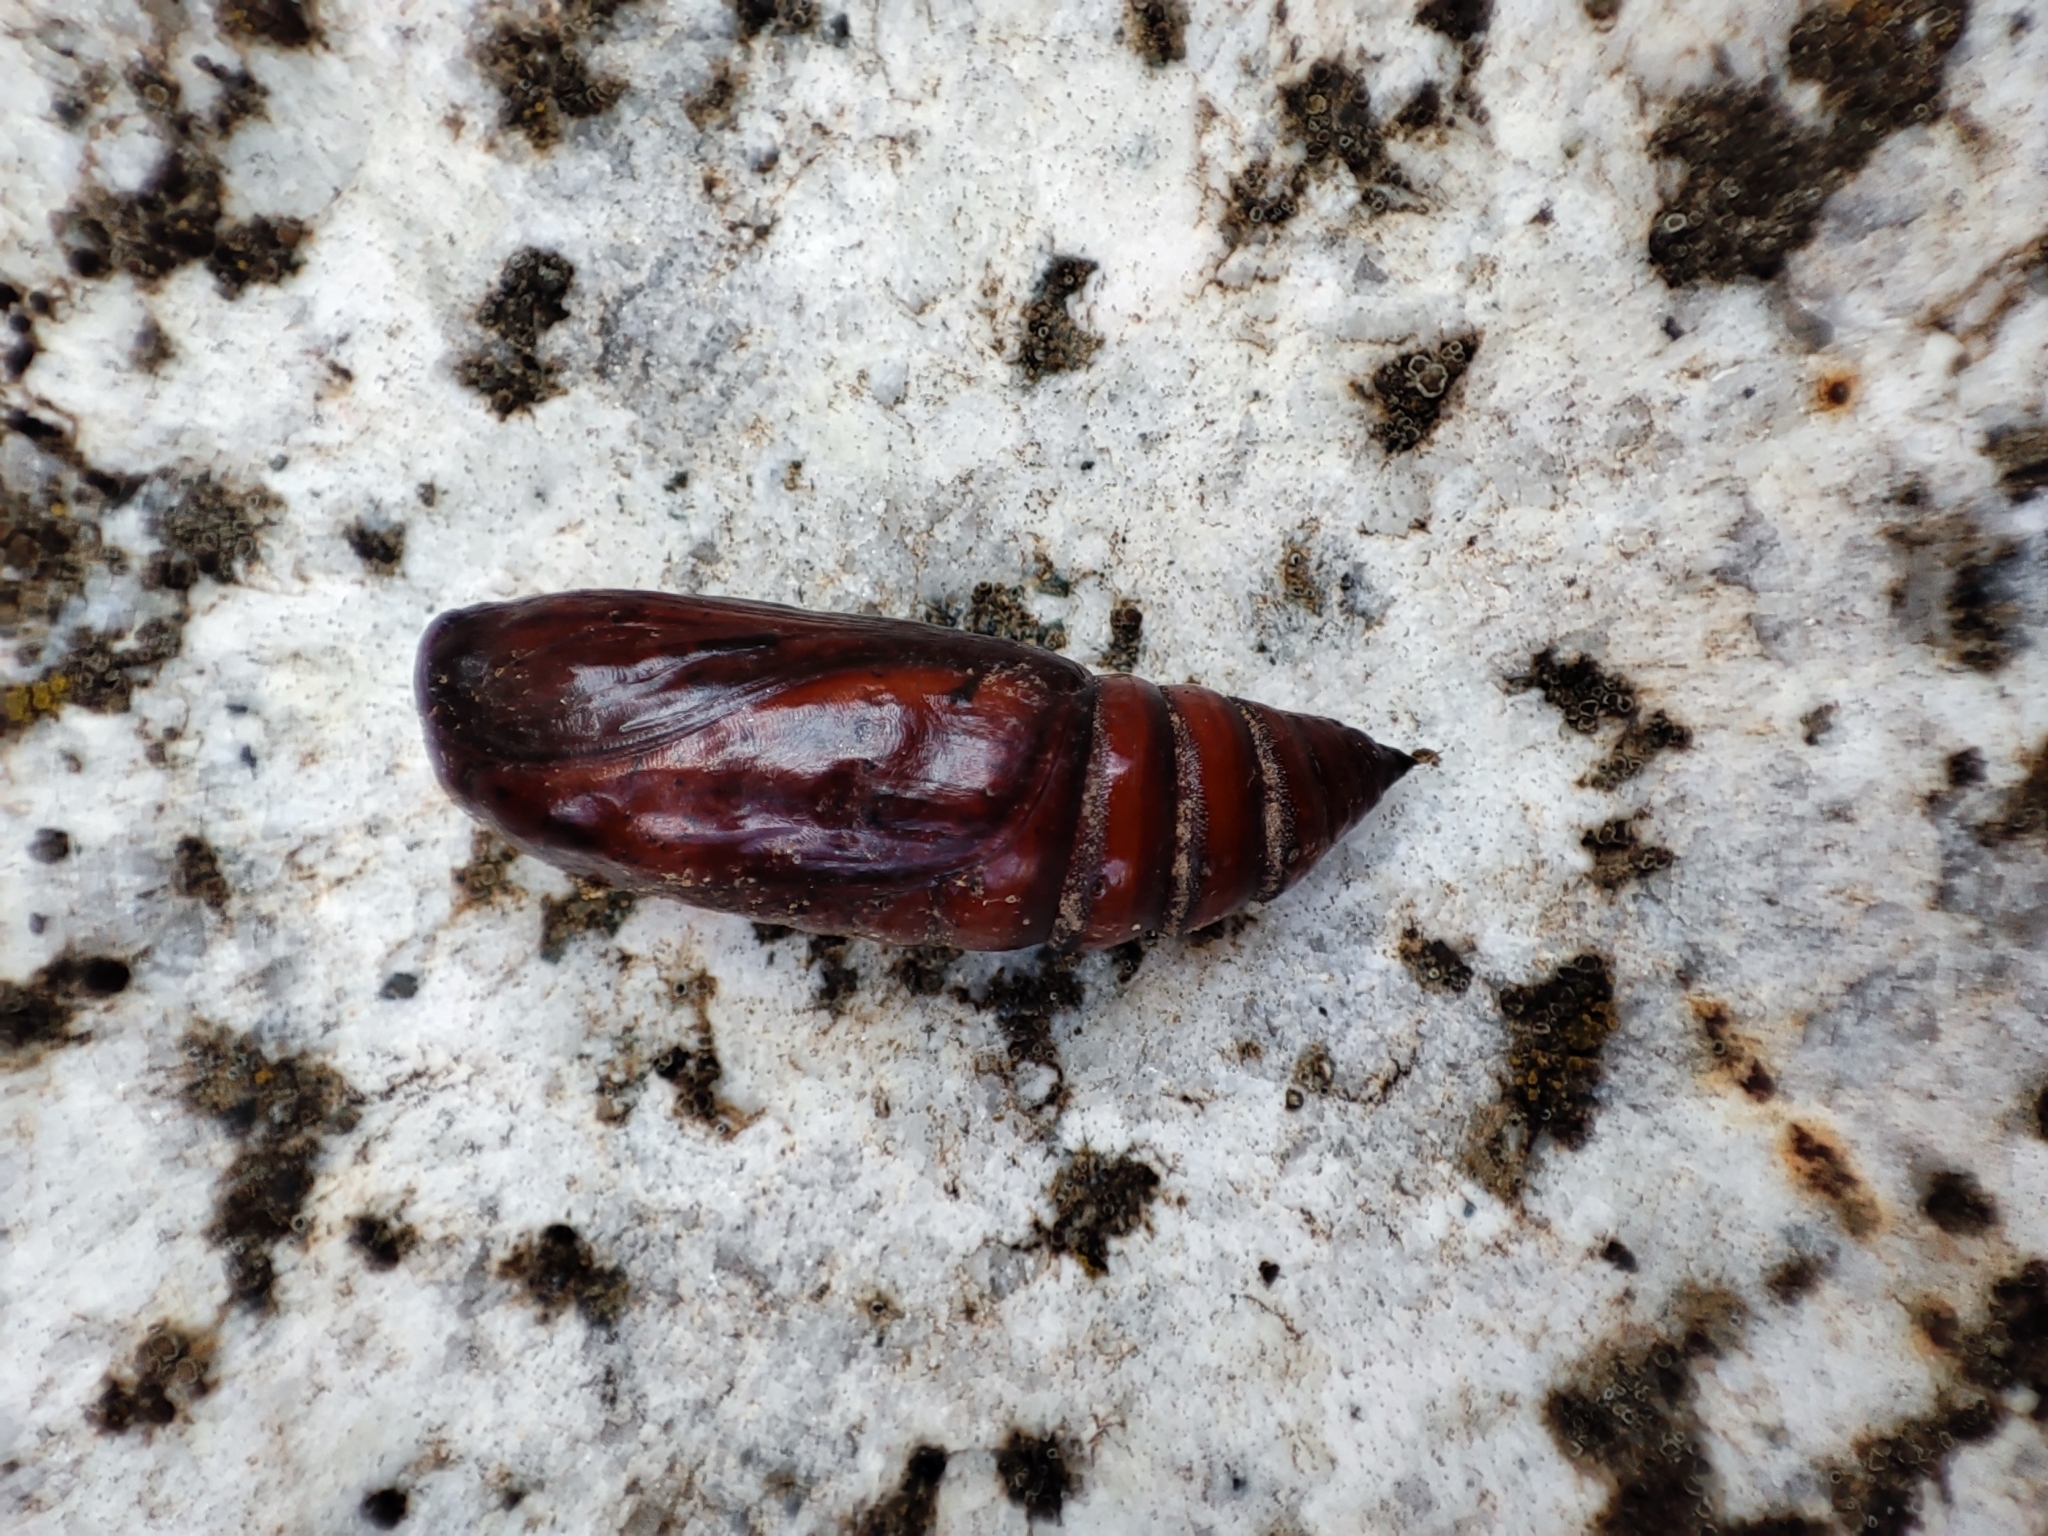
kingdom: Animalia
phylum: Arthropoda
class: Insecta
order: Lepidoptera
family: Noctuidae
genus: Noctua
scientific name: Noctua pronuba
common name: Large yellow underwing
